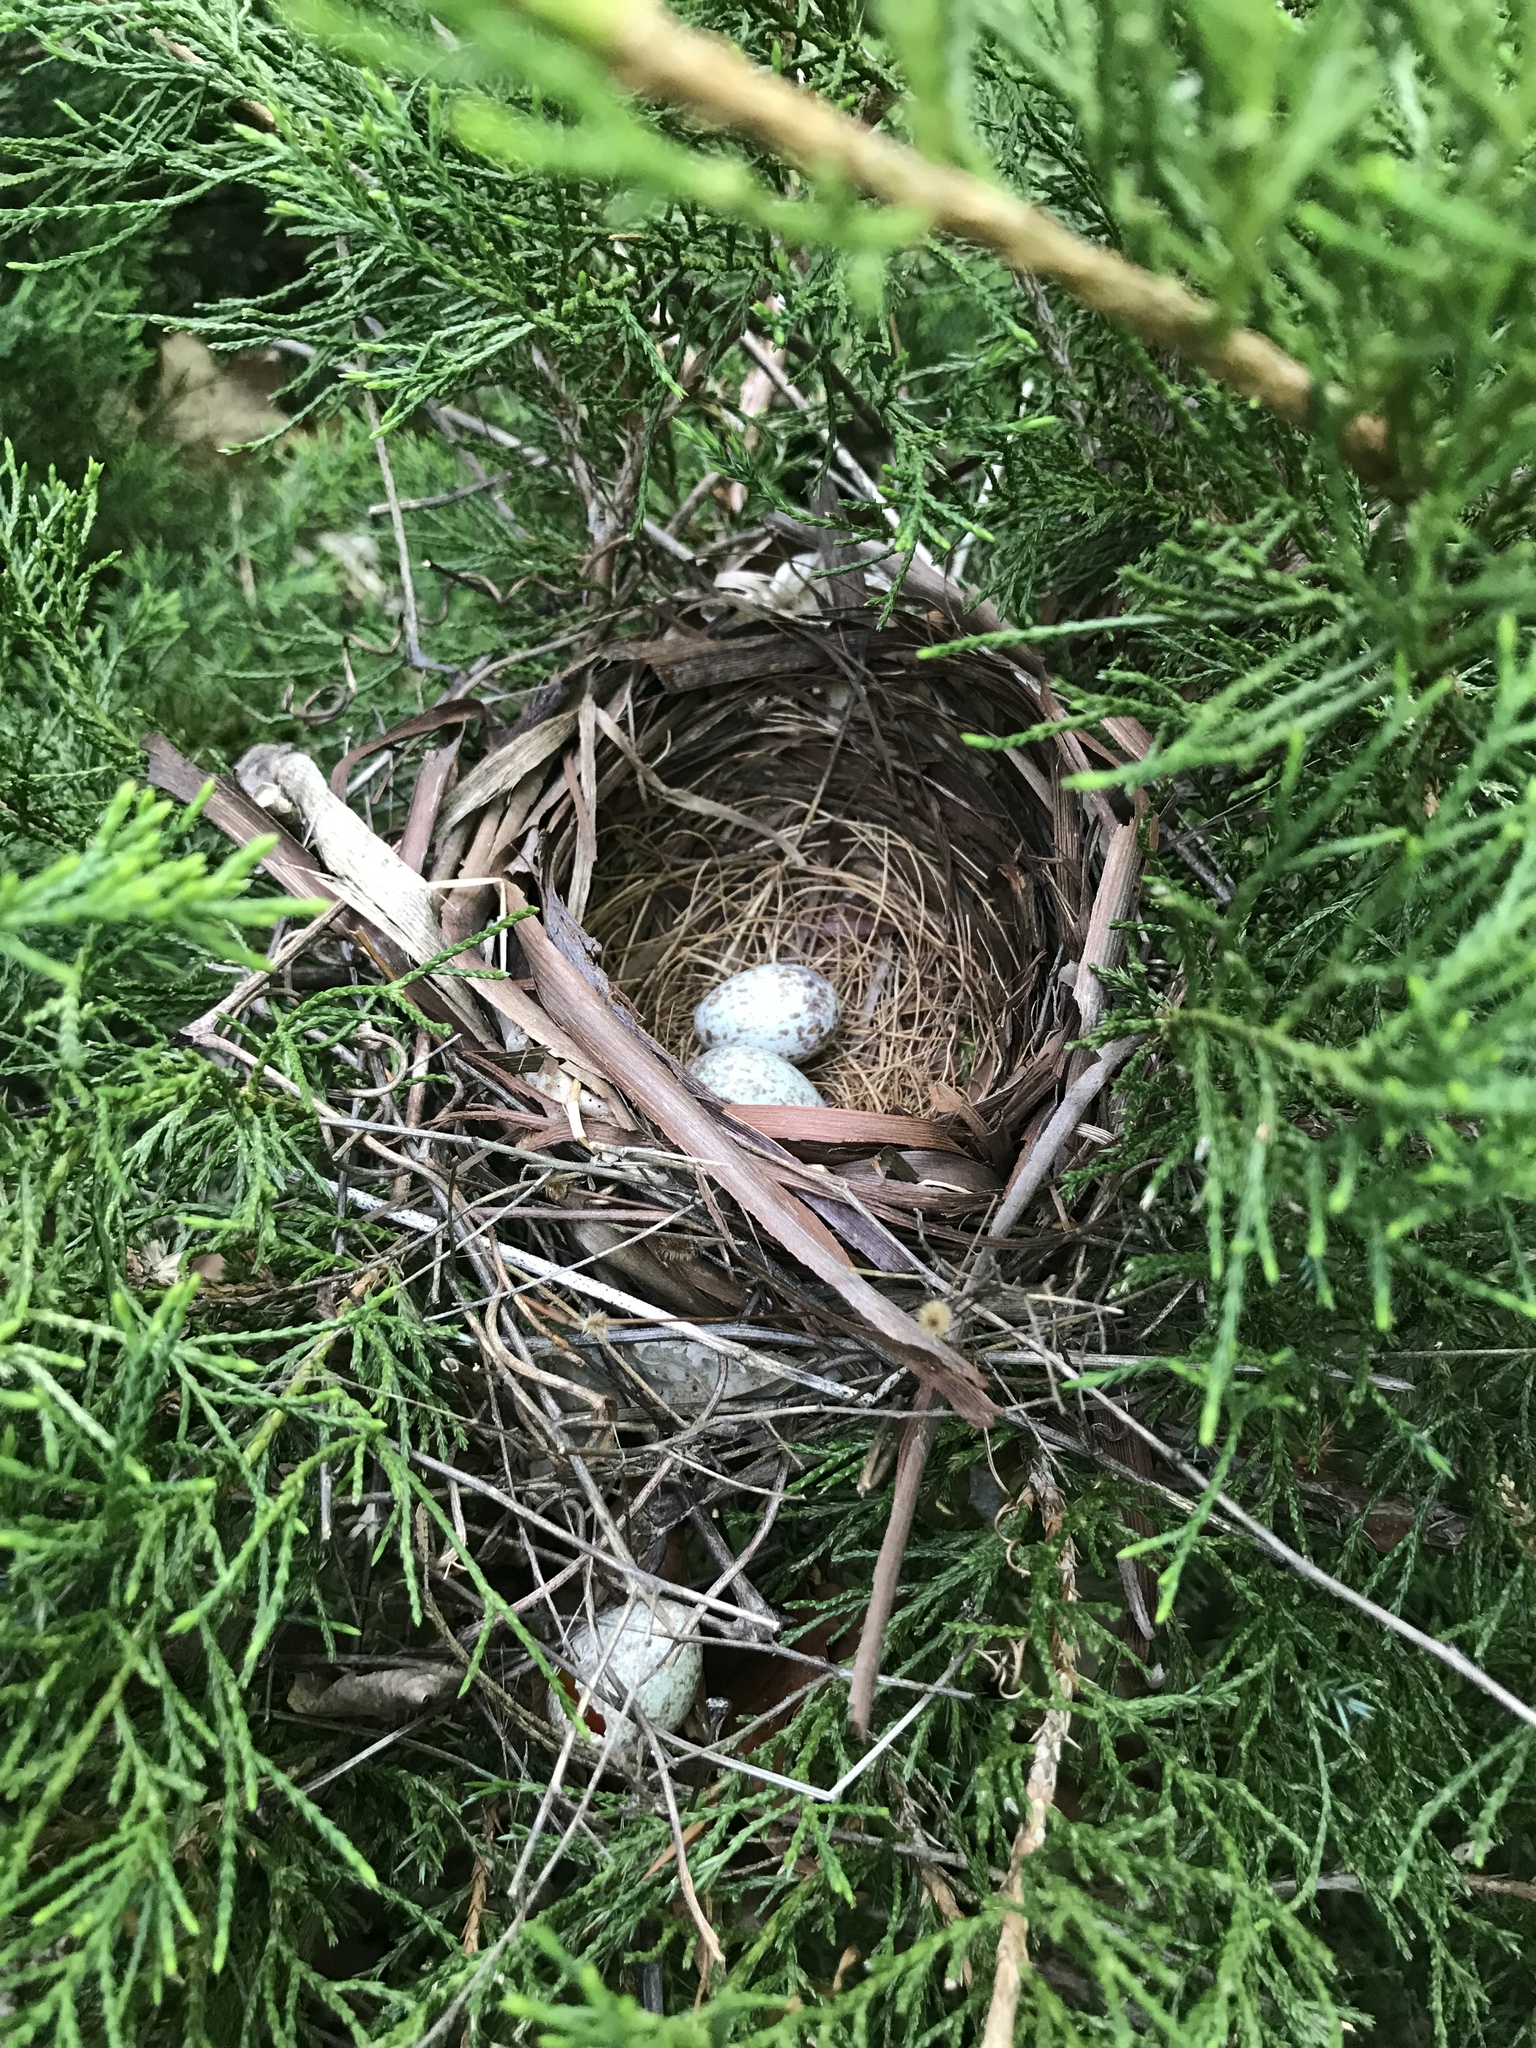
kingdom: Animalia
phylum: Chordata
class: Aves
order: Passeriformes
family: Cardinalidae
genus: Cardinalis
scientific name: Cardinalis cardinalis
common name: Northern cardinal
